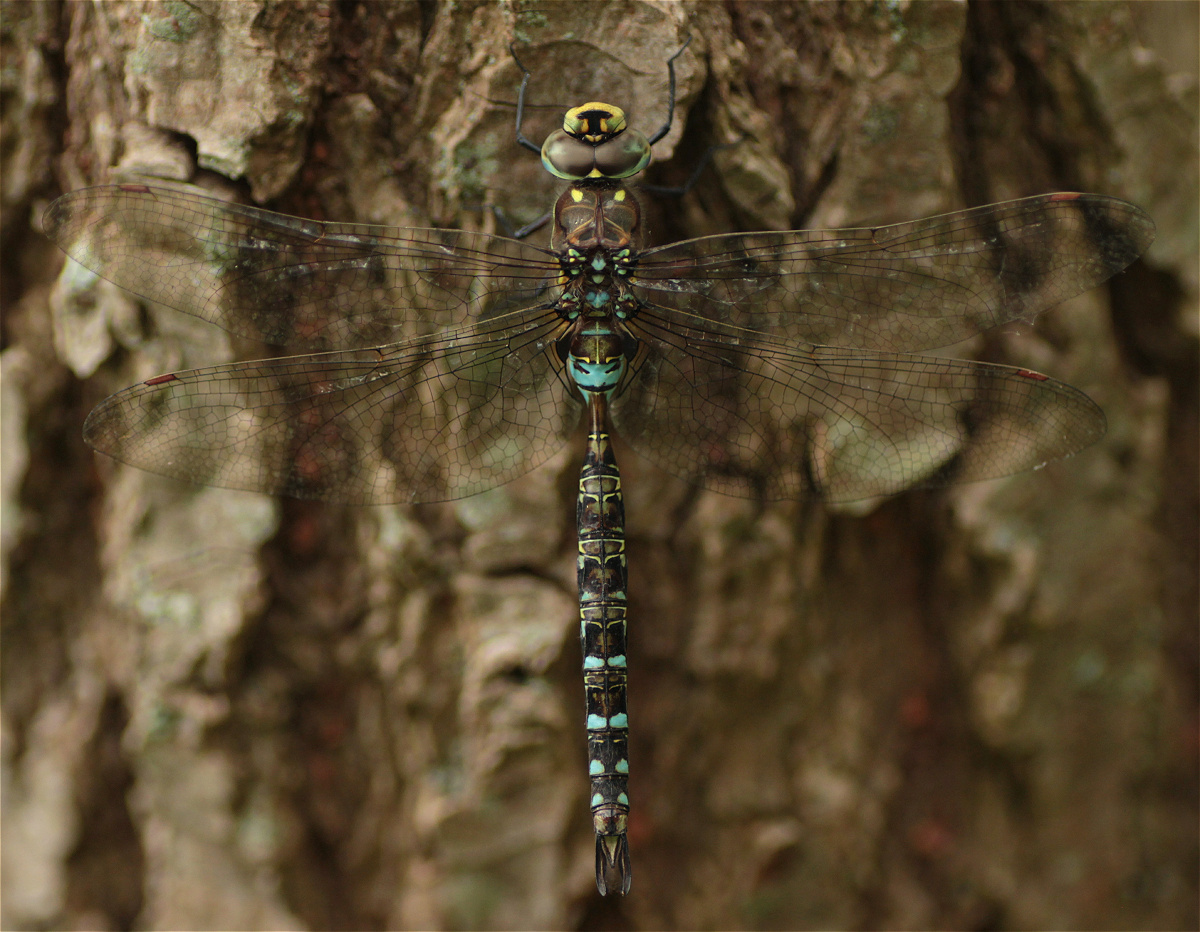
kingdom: Animalia
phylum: Arthropoda
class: Insecta
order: Odonata
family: Aeshnidae
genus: Rhionaeschna
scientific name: Rhionaeschna marchali
